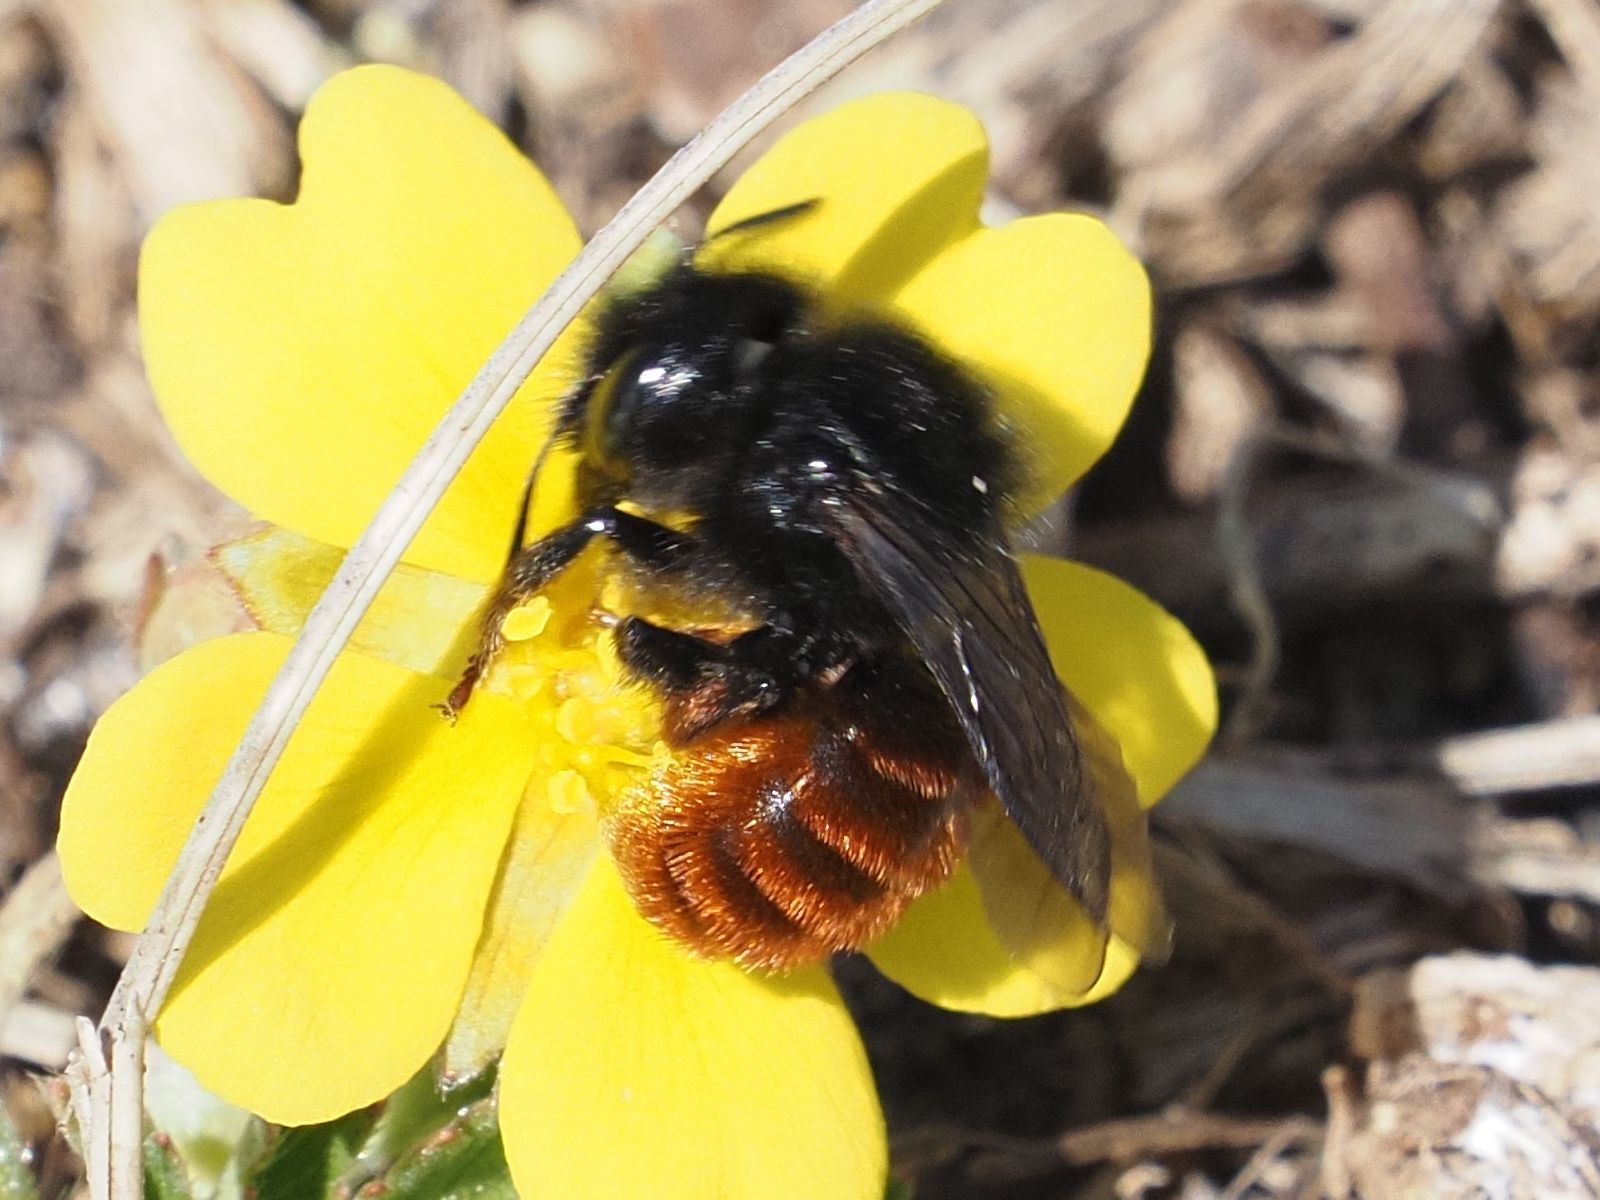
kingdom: Animalia
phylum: Arthropoda
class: Insecta
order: Hymenoptera
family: Megachilidae
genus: Osmia
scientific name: Osmia bicolor
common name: Red-tailed mason bee
